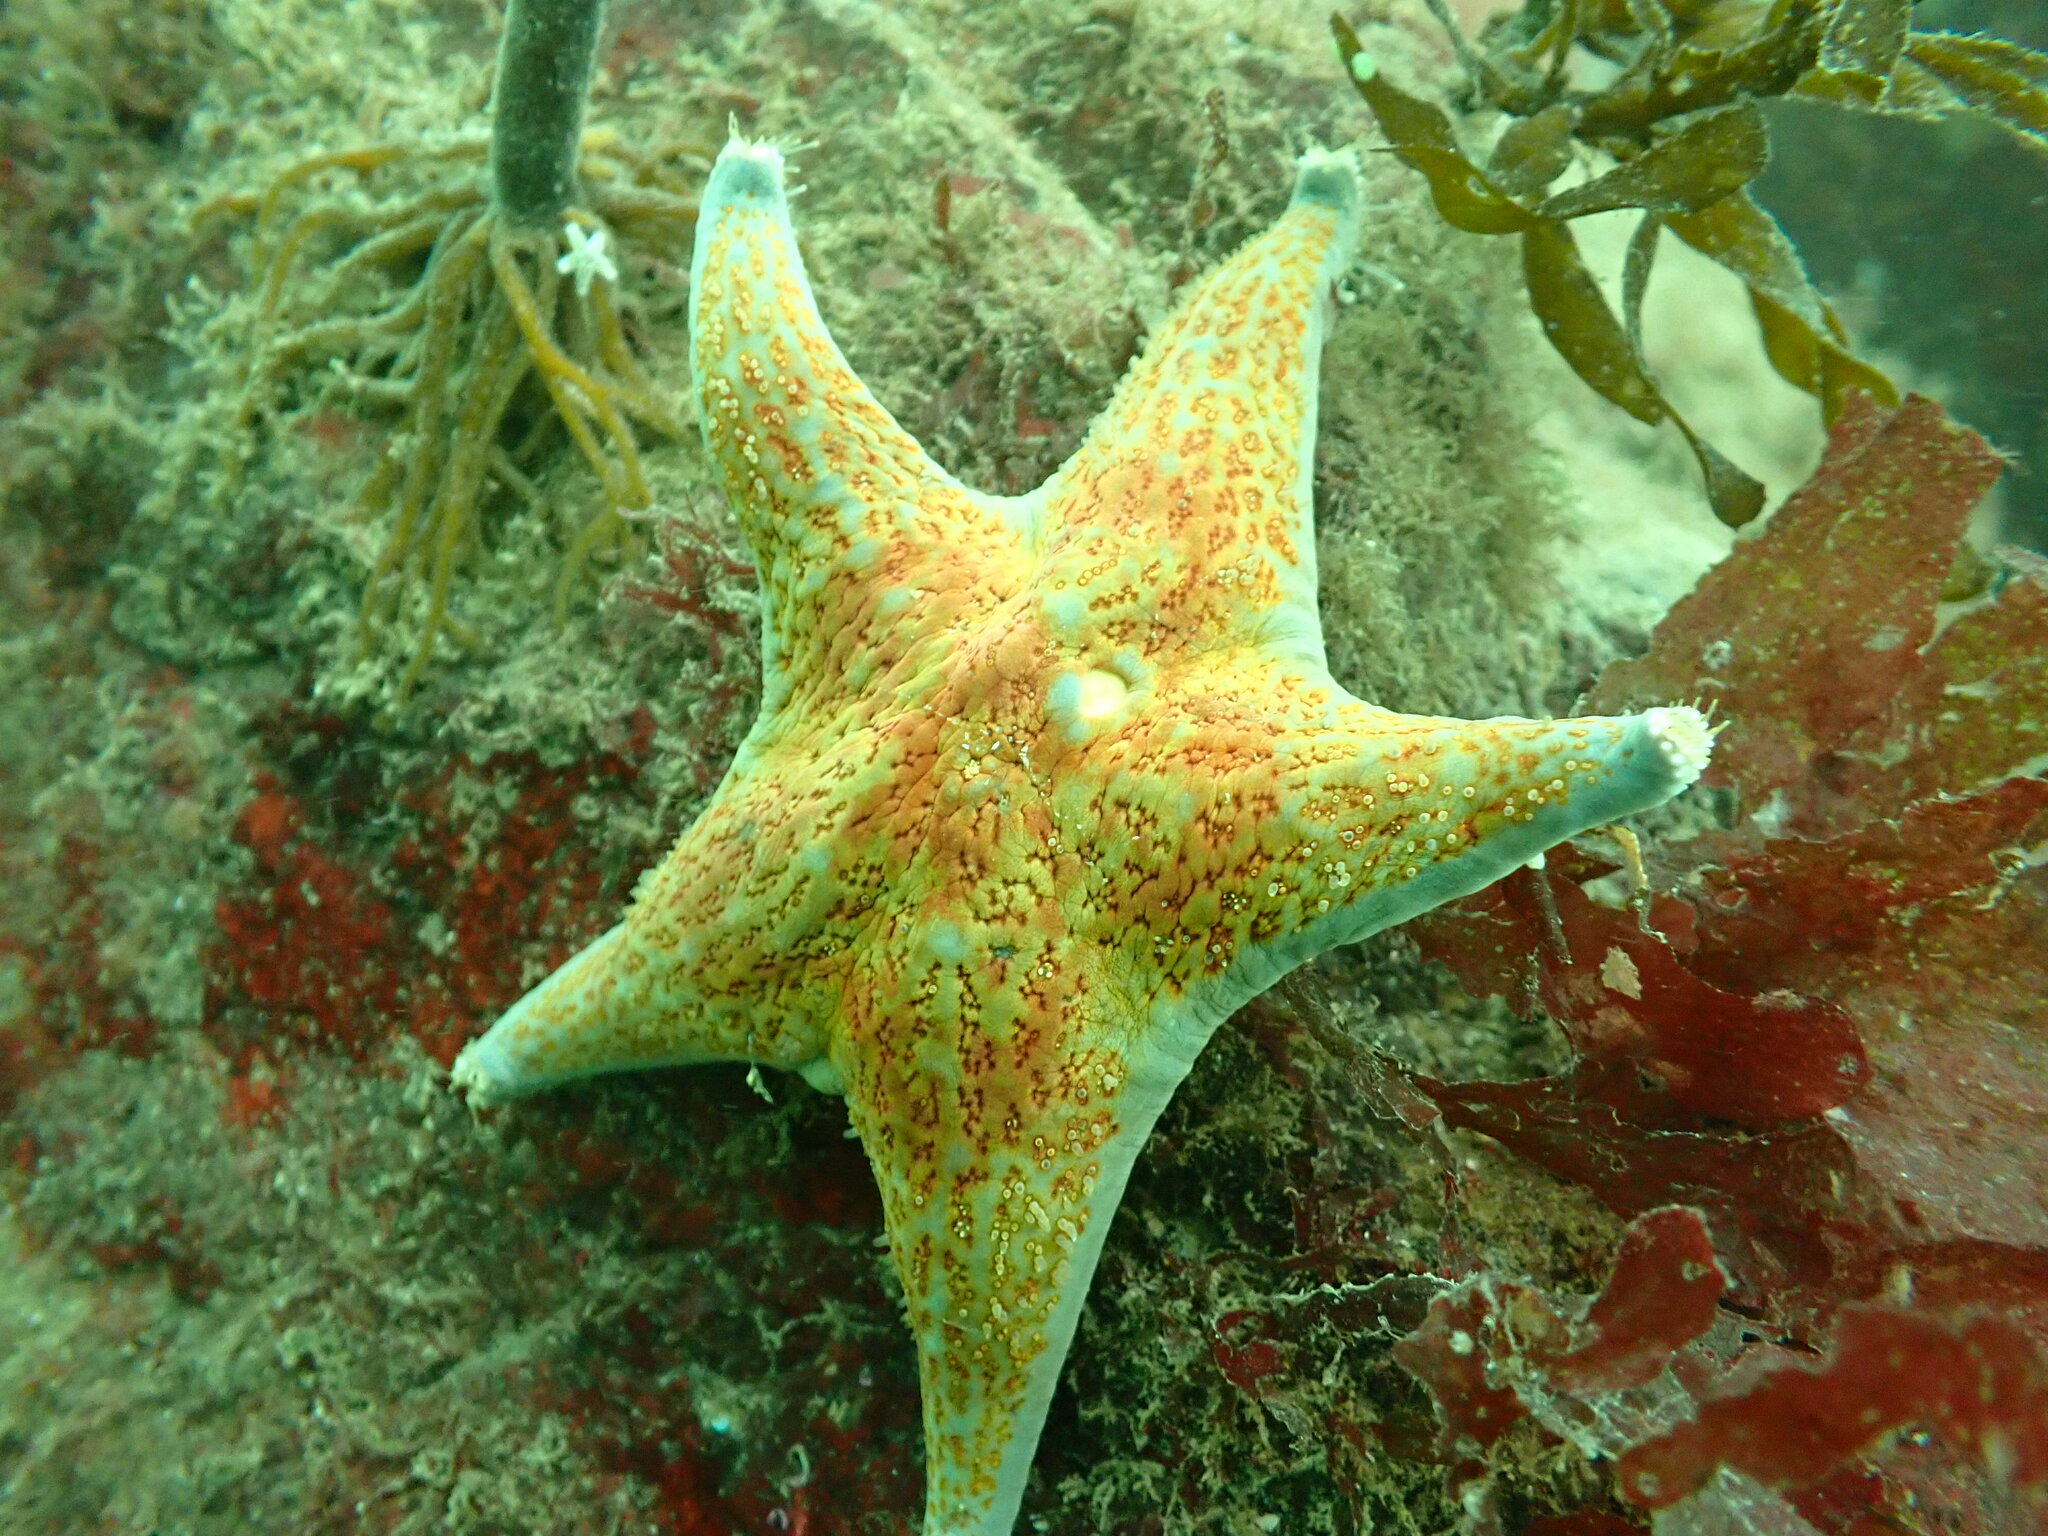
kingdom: Animalia
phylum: Echinodermata
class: Asteroidea
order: Valvatida
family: Asteropseidae
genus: Dermasterias
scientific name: Dermasterias imbricata
